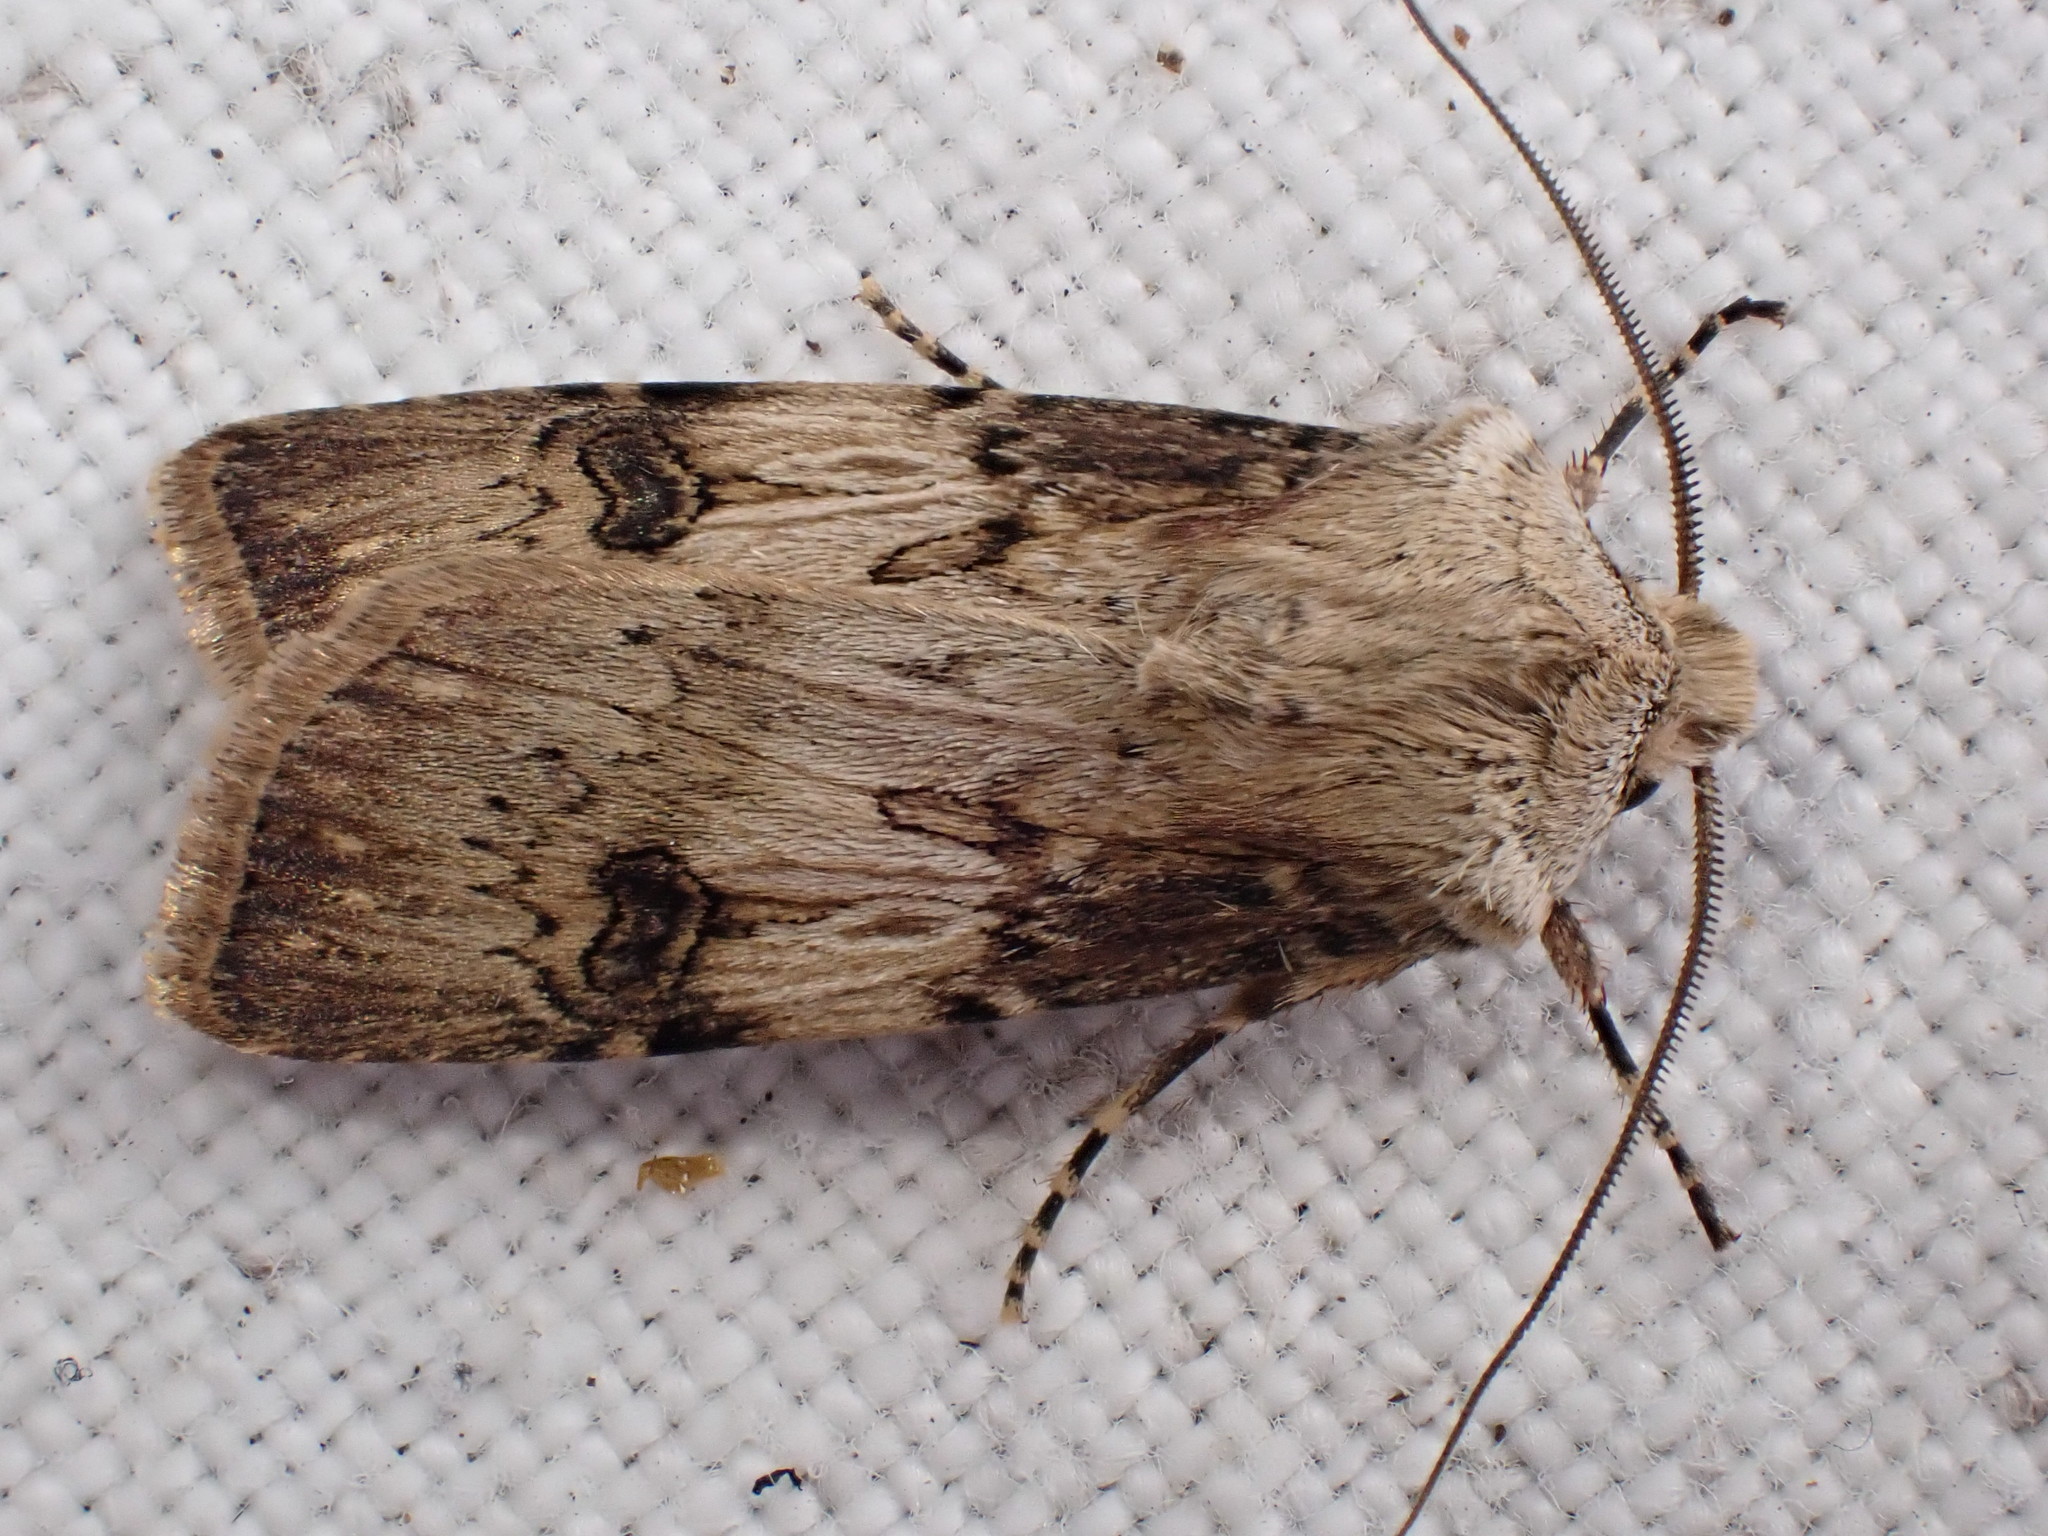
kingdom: Animalia
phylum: Arthropoda
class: Insecta
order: Lepidoptera
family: Noctuidae
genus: Agrotis
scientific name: Agrotis puta
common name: Shuttle-shaped dart
